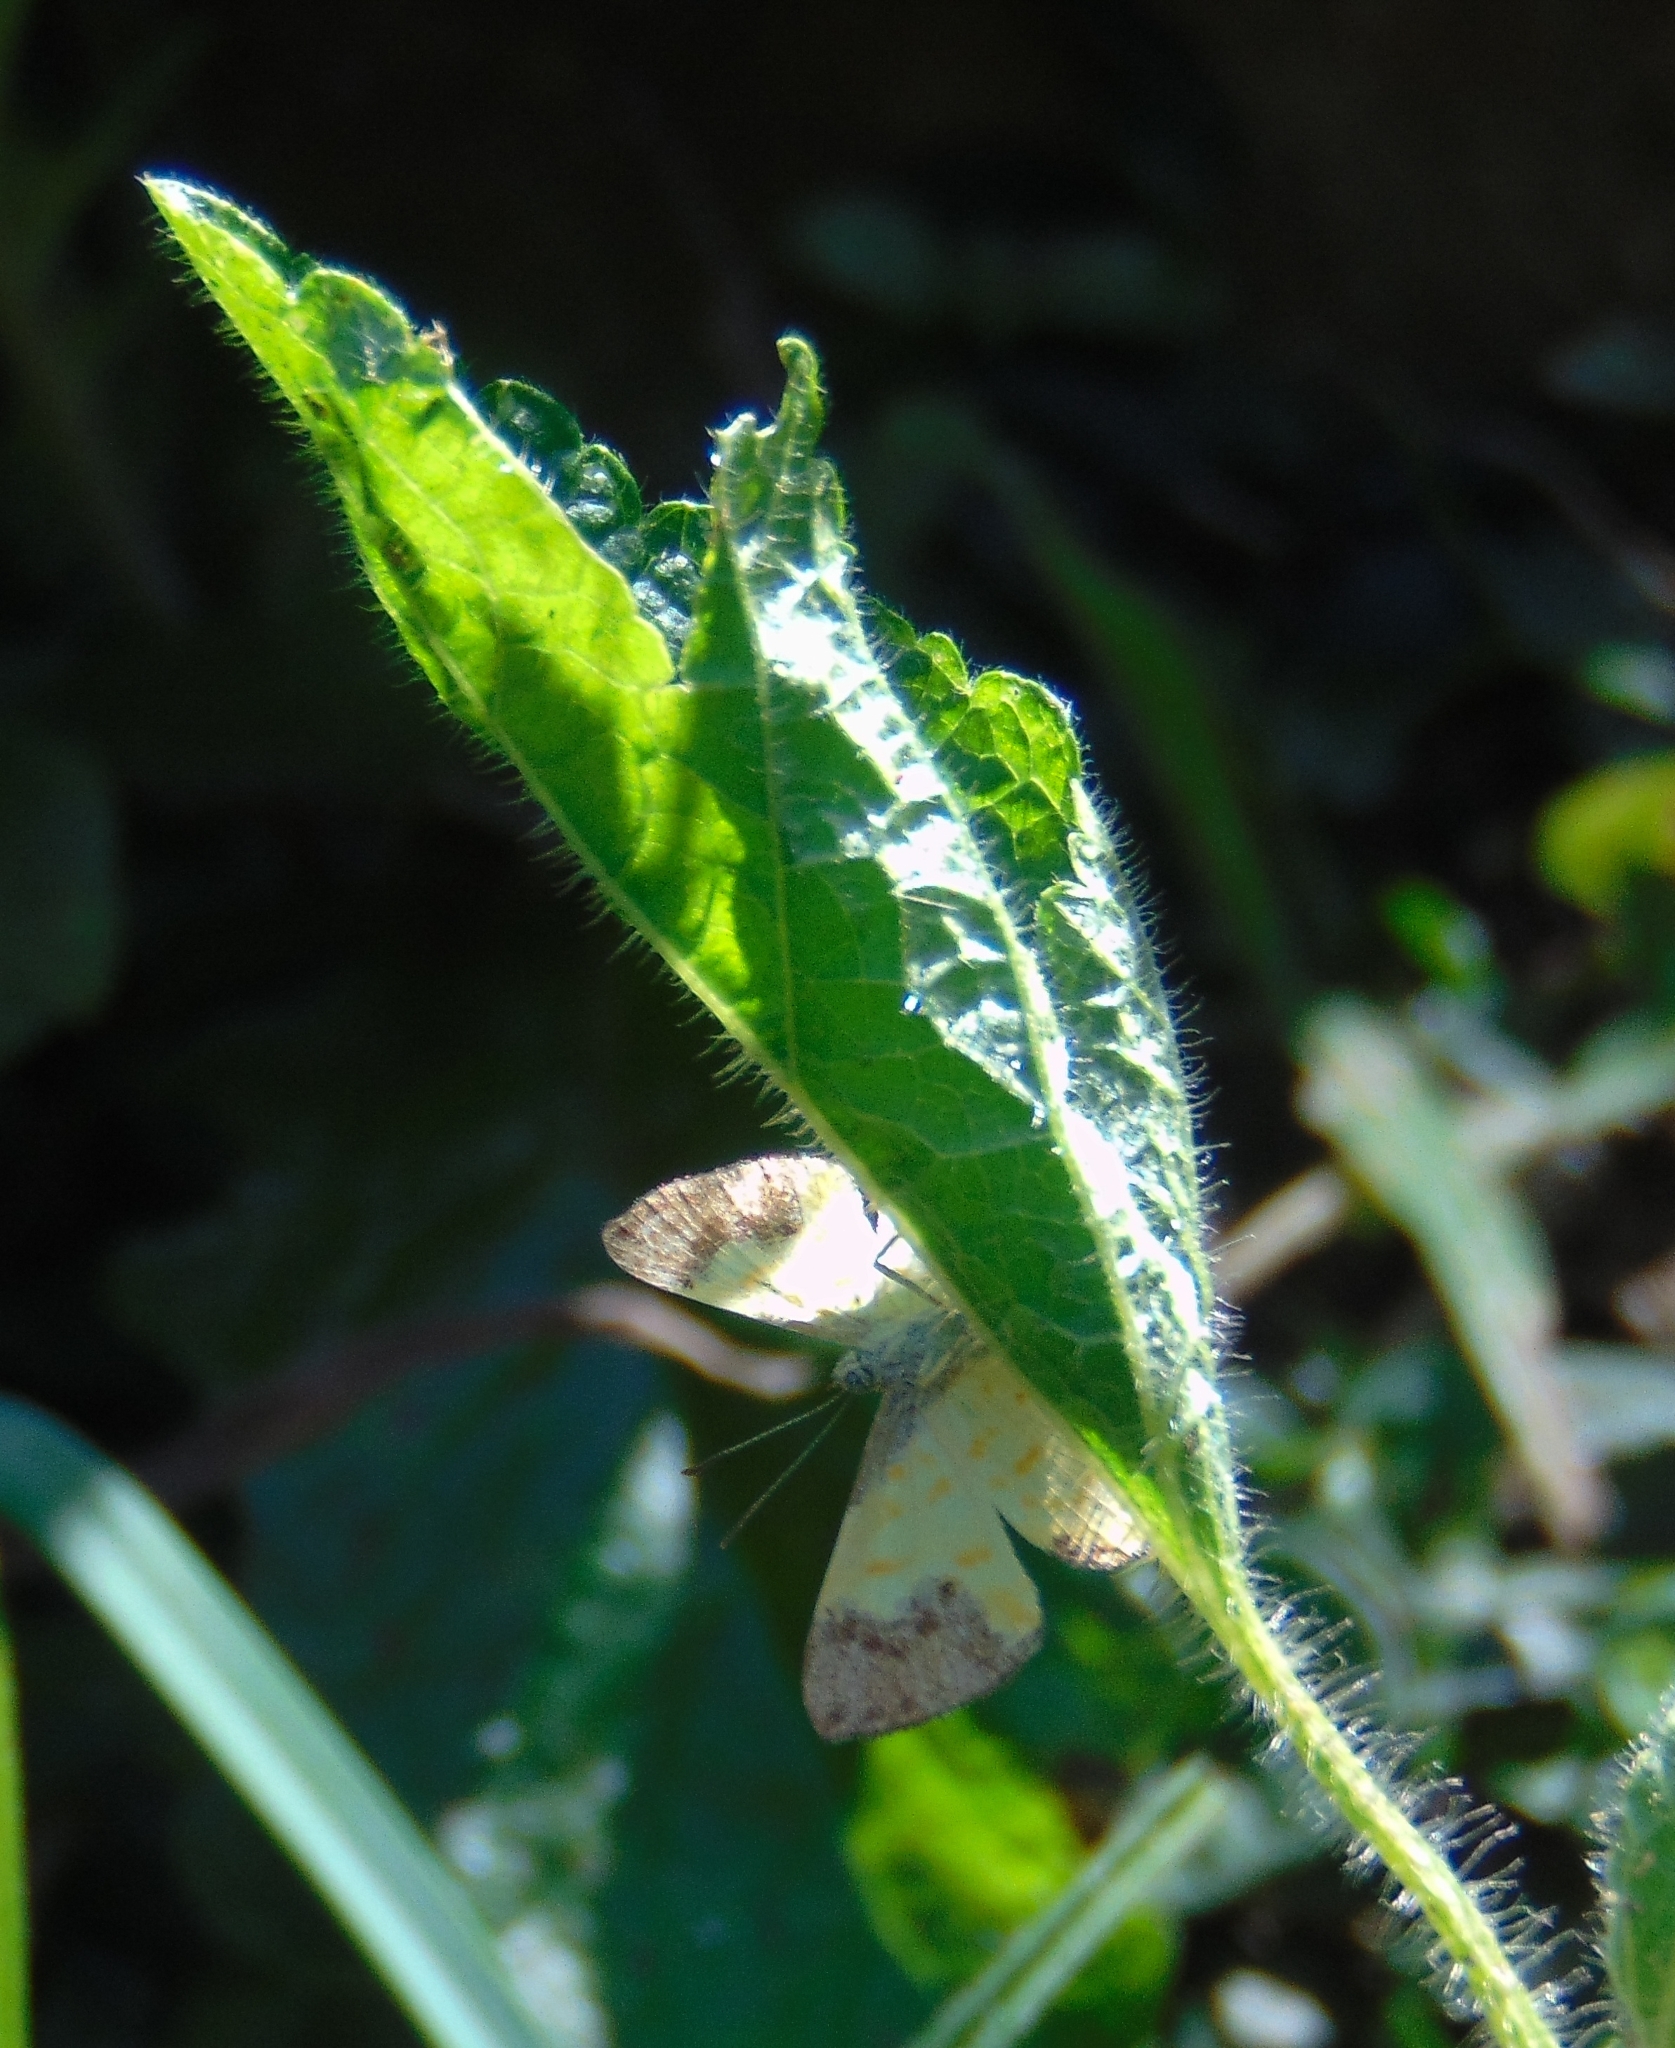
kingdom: Animalia
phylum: Arthropoda
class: Insecta
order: Lepidoptera
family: Riodinidae
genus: Echenais
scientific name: Echenais Adelotypa bolena
